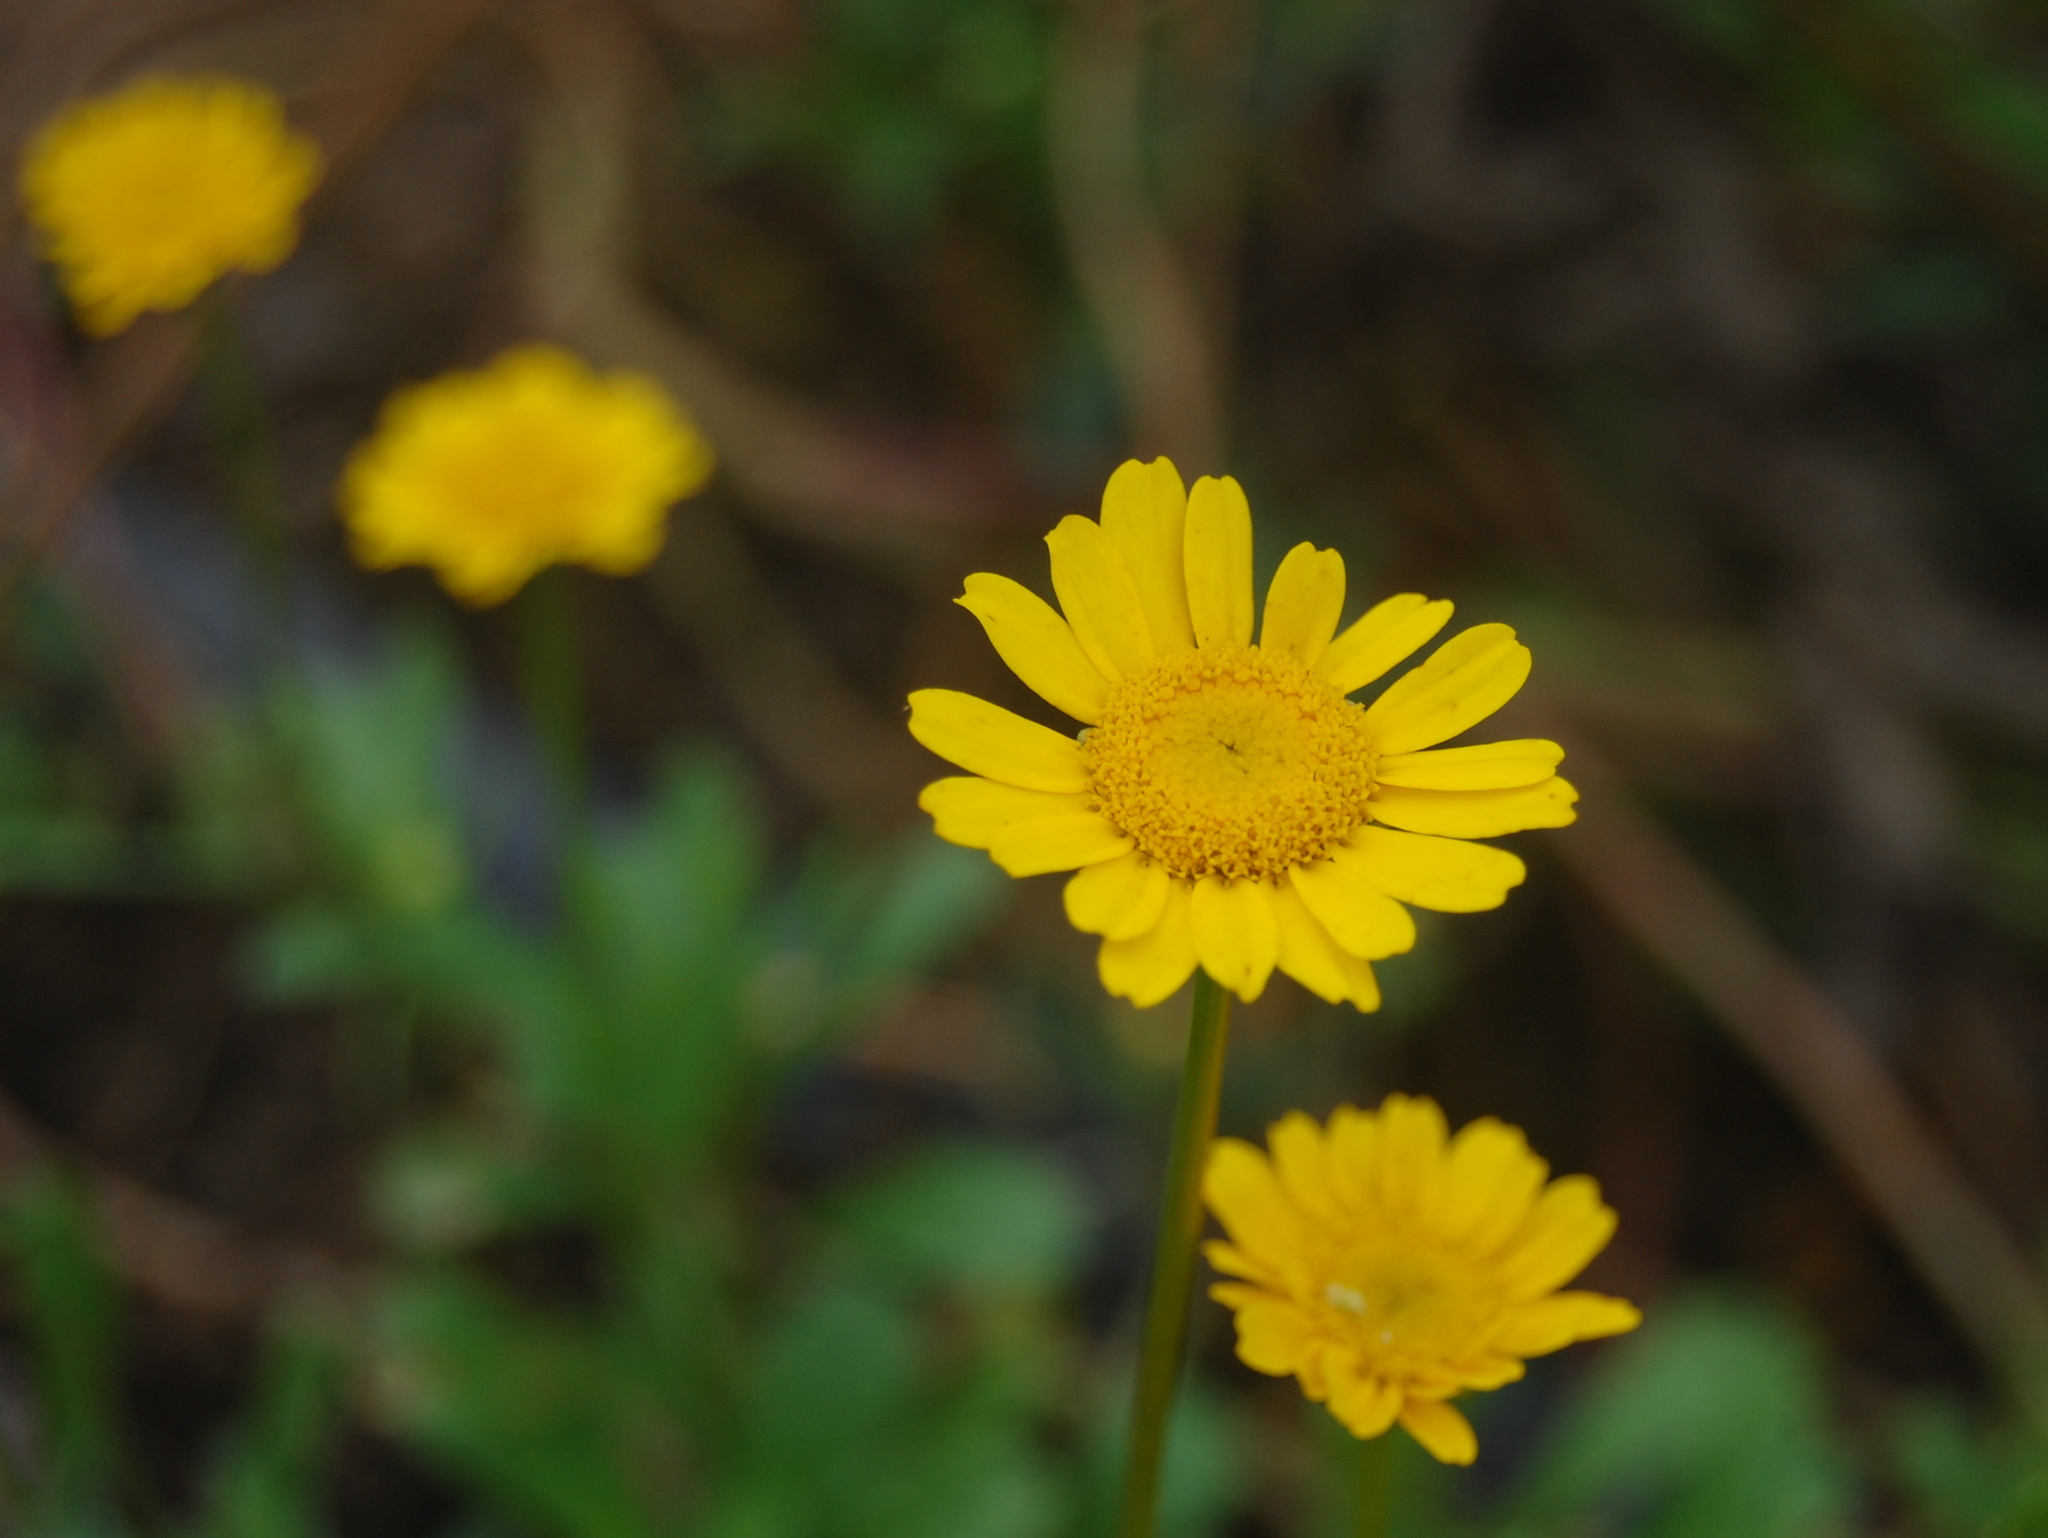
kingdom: Plantae
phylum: Tracheophyta
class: Magnoliopsida
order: Asterales
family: Asteraceae
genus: Coleostephus
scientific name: Coleostephus myconis
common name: Mediterranean marigold
